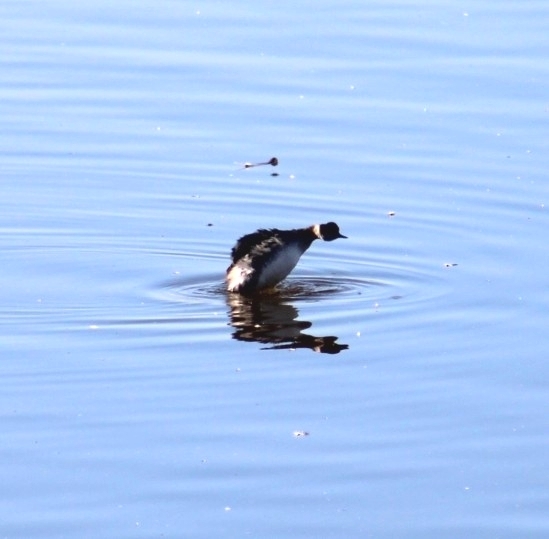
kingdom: Animalia
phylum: Chordata
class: Aves
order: Podicipediformes
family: Podicipedidae
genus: Podiceps
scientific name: Podiceps nigricollis
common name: Black-necked grebe
